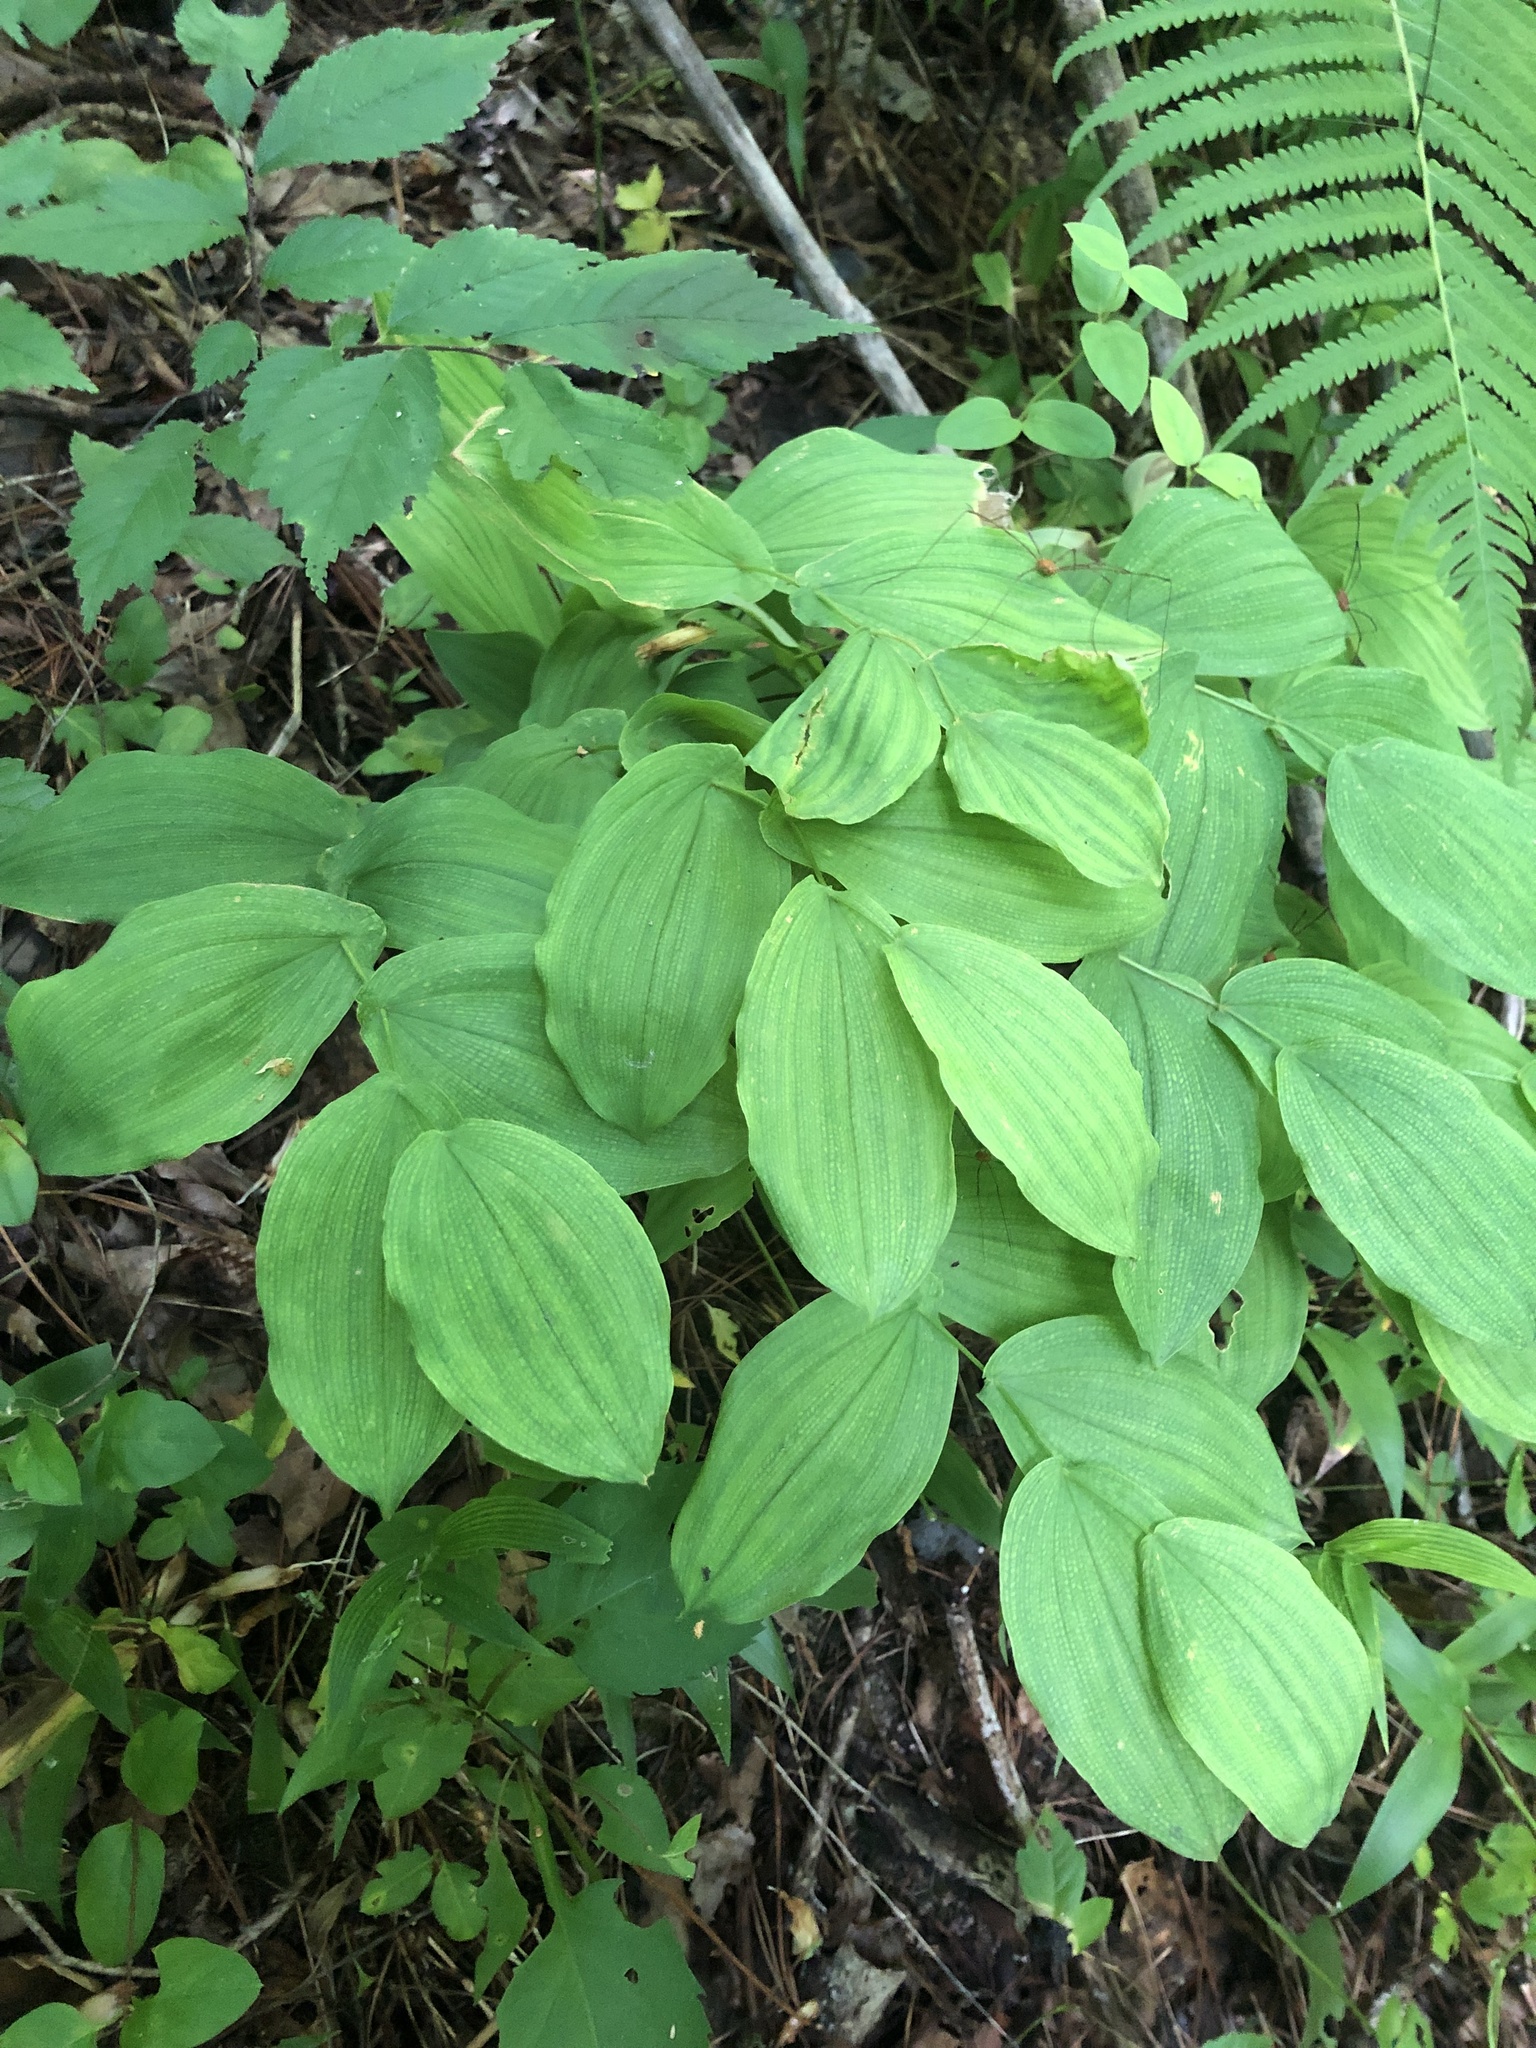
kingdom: Plantae
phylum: Tracheophyta
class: Liliopsida
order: Liliales
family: Colchicaceae
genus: Uvularia
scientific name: Uvularia grandiflora
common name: Bellwort
